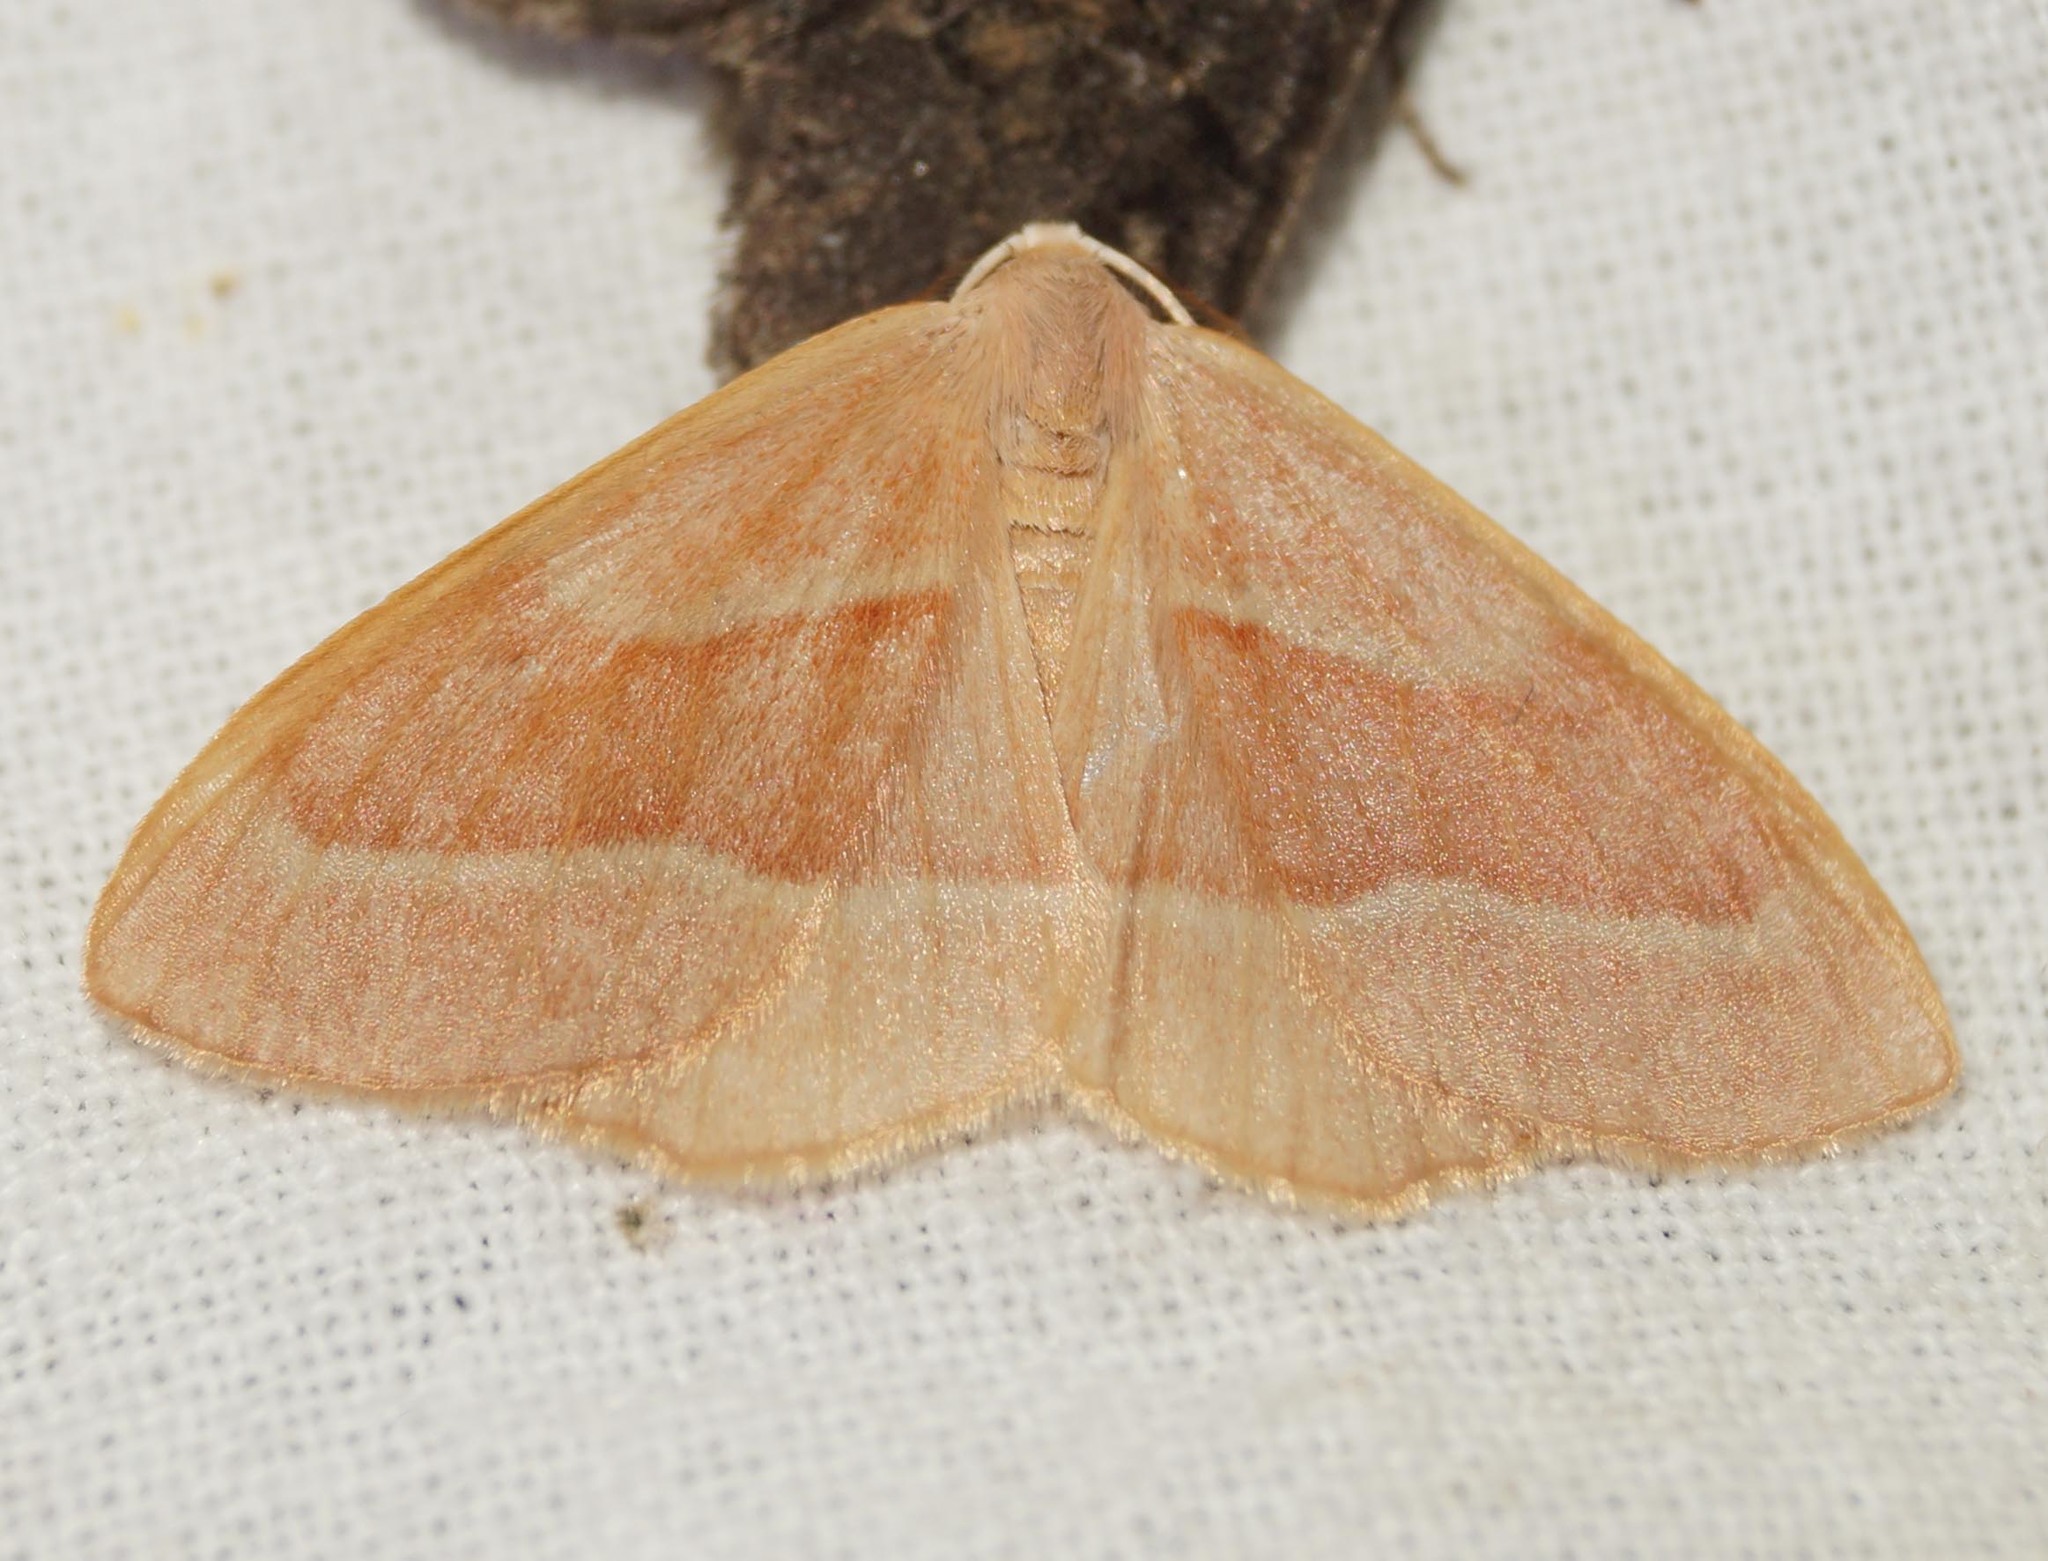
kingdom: Animalia
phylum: Arthropoda
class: Insecta
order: Lepidoptera
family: Geometridae
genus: Hylaea
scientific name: Hylaea fasciaria
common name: Barred red
